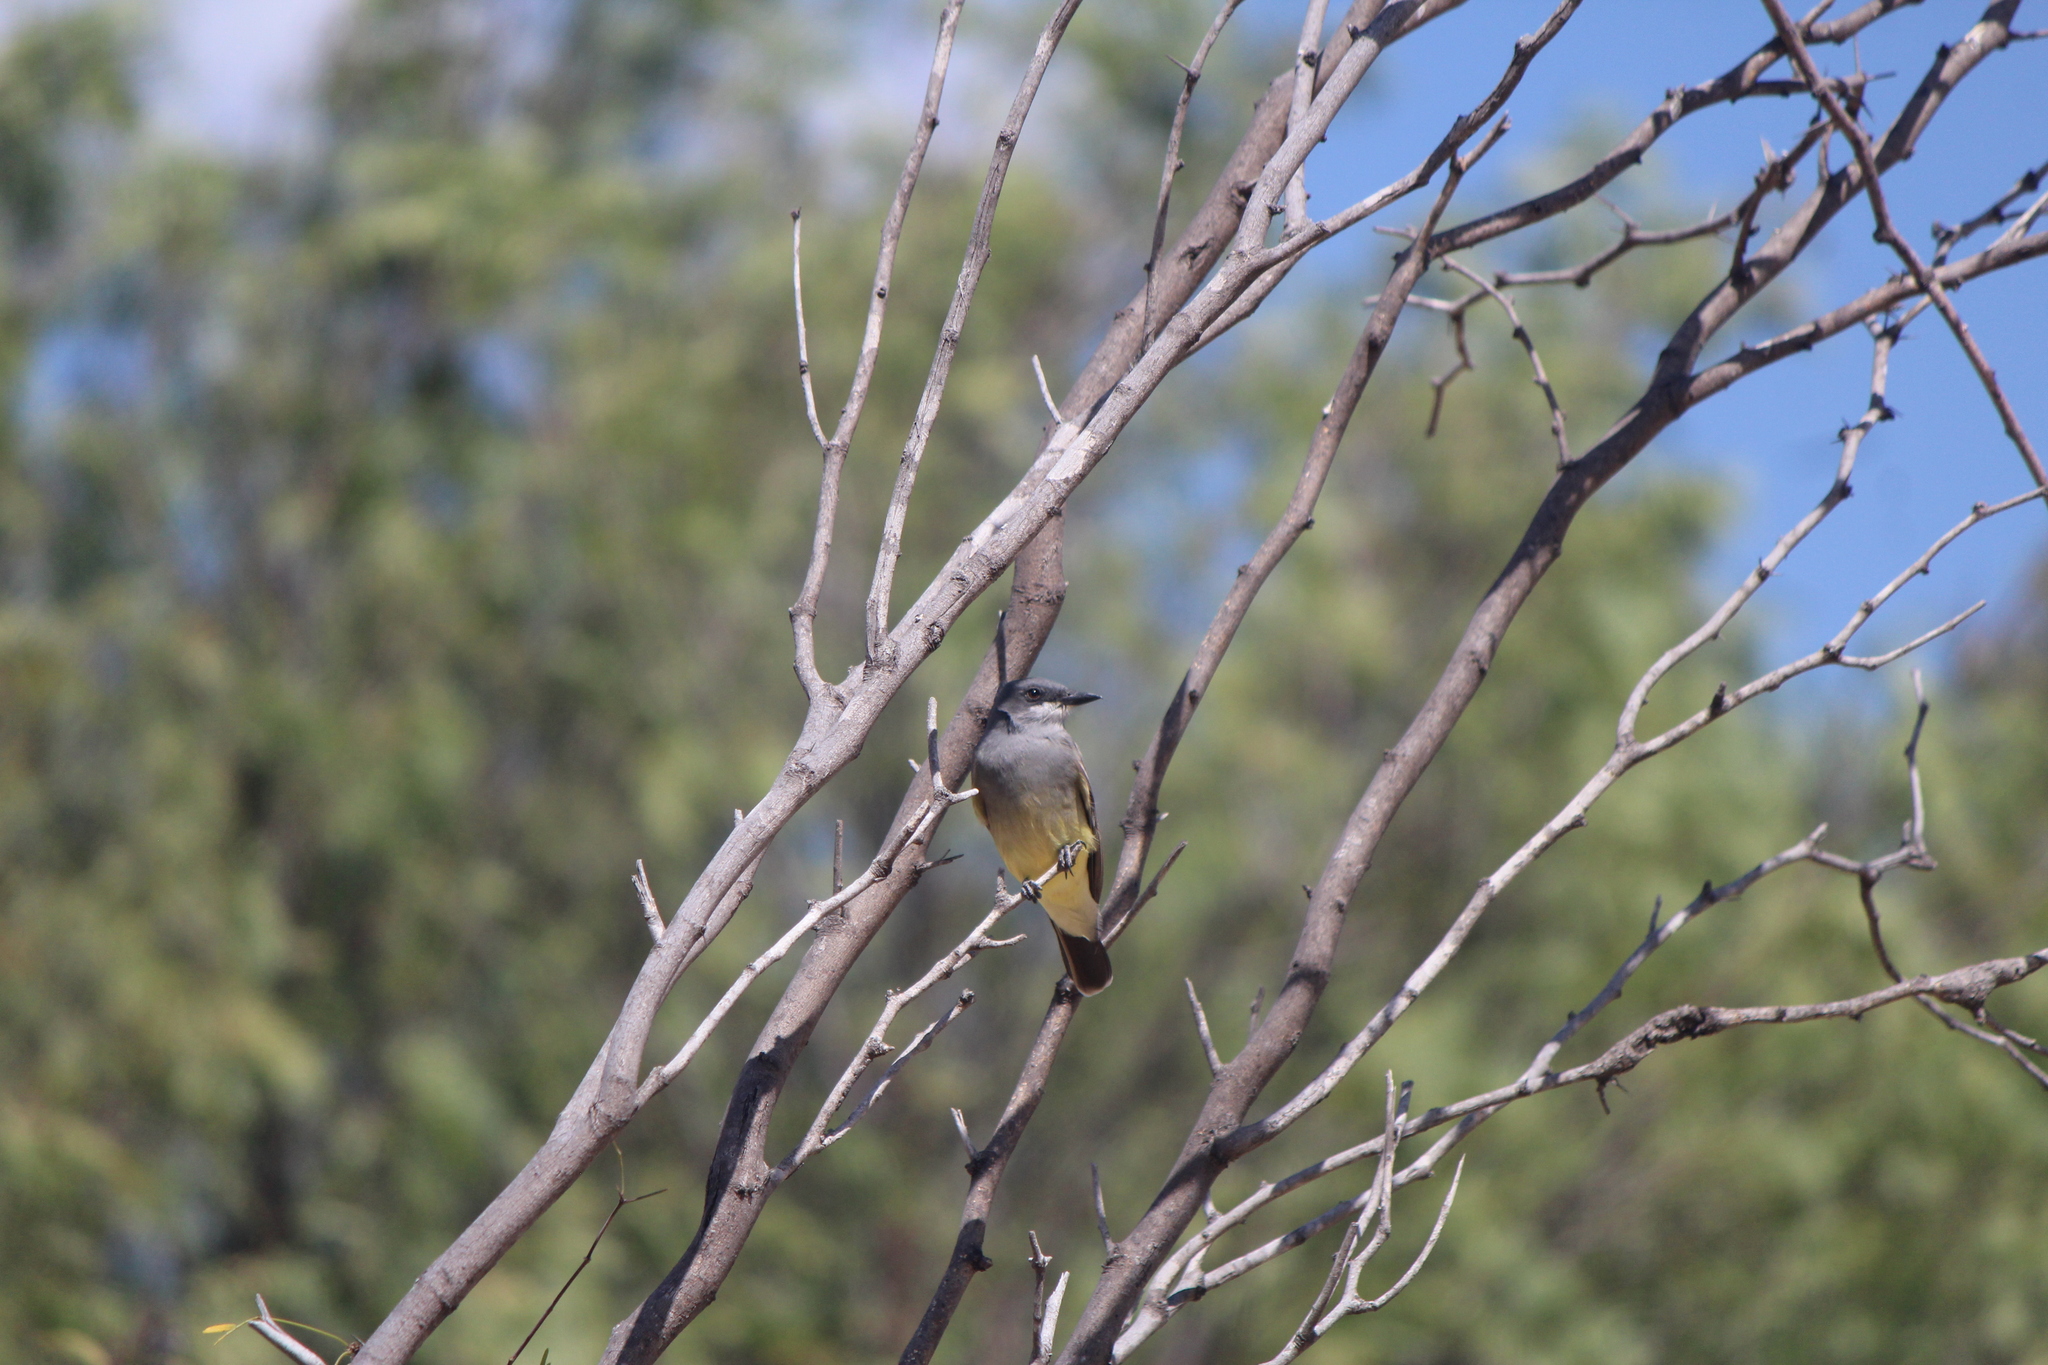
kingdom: Animalia
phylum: Chordata
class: Aves
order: Passeriformes
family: Tyrannidae
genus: Tyrannus
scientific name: Tyrannus vociferans
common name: Cassin's kingbird
